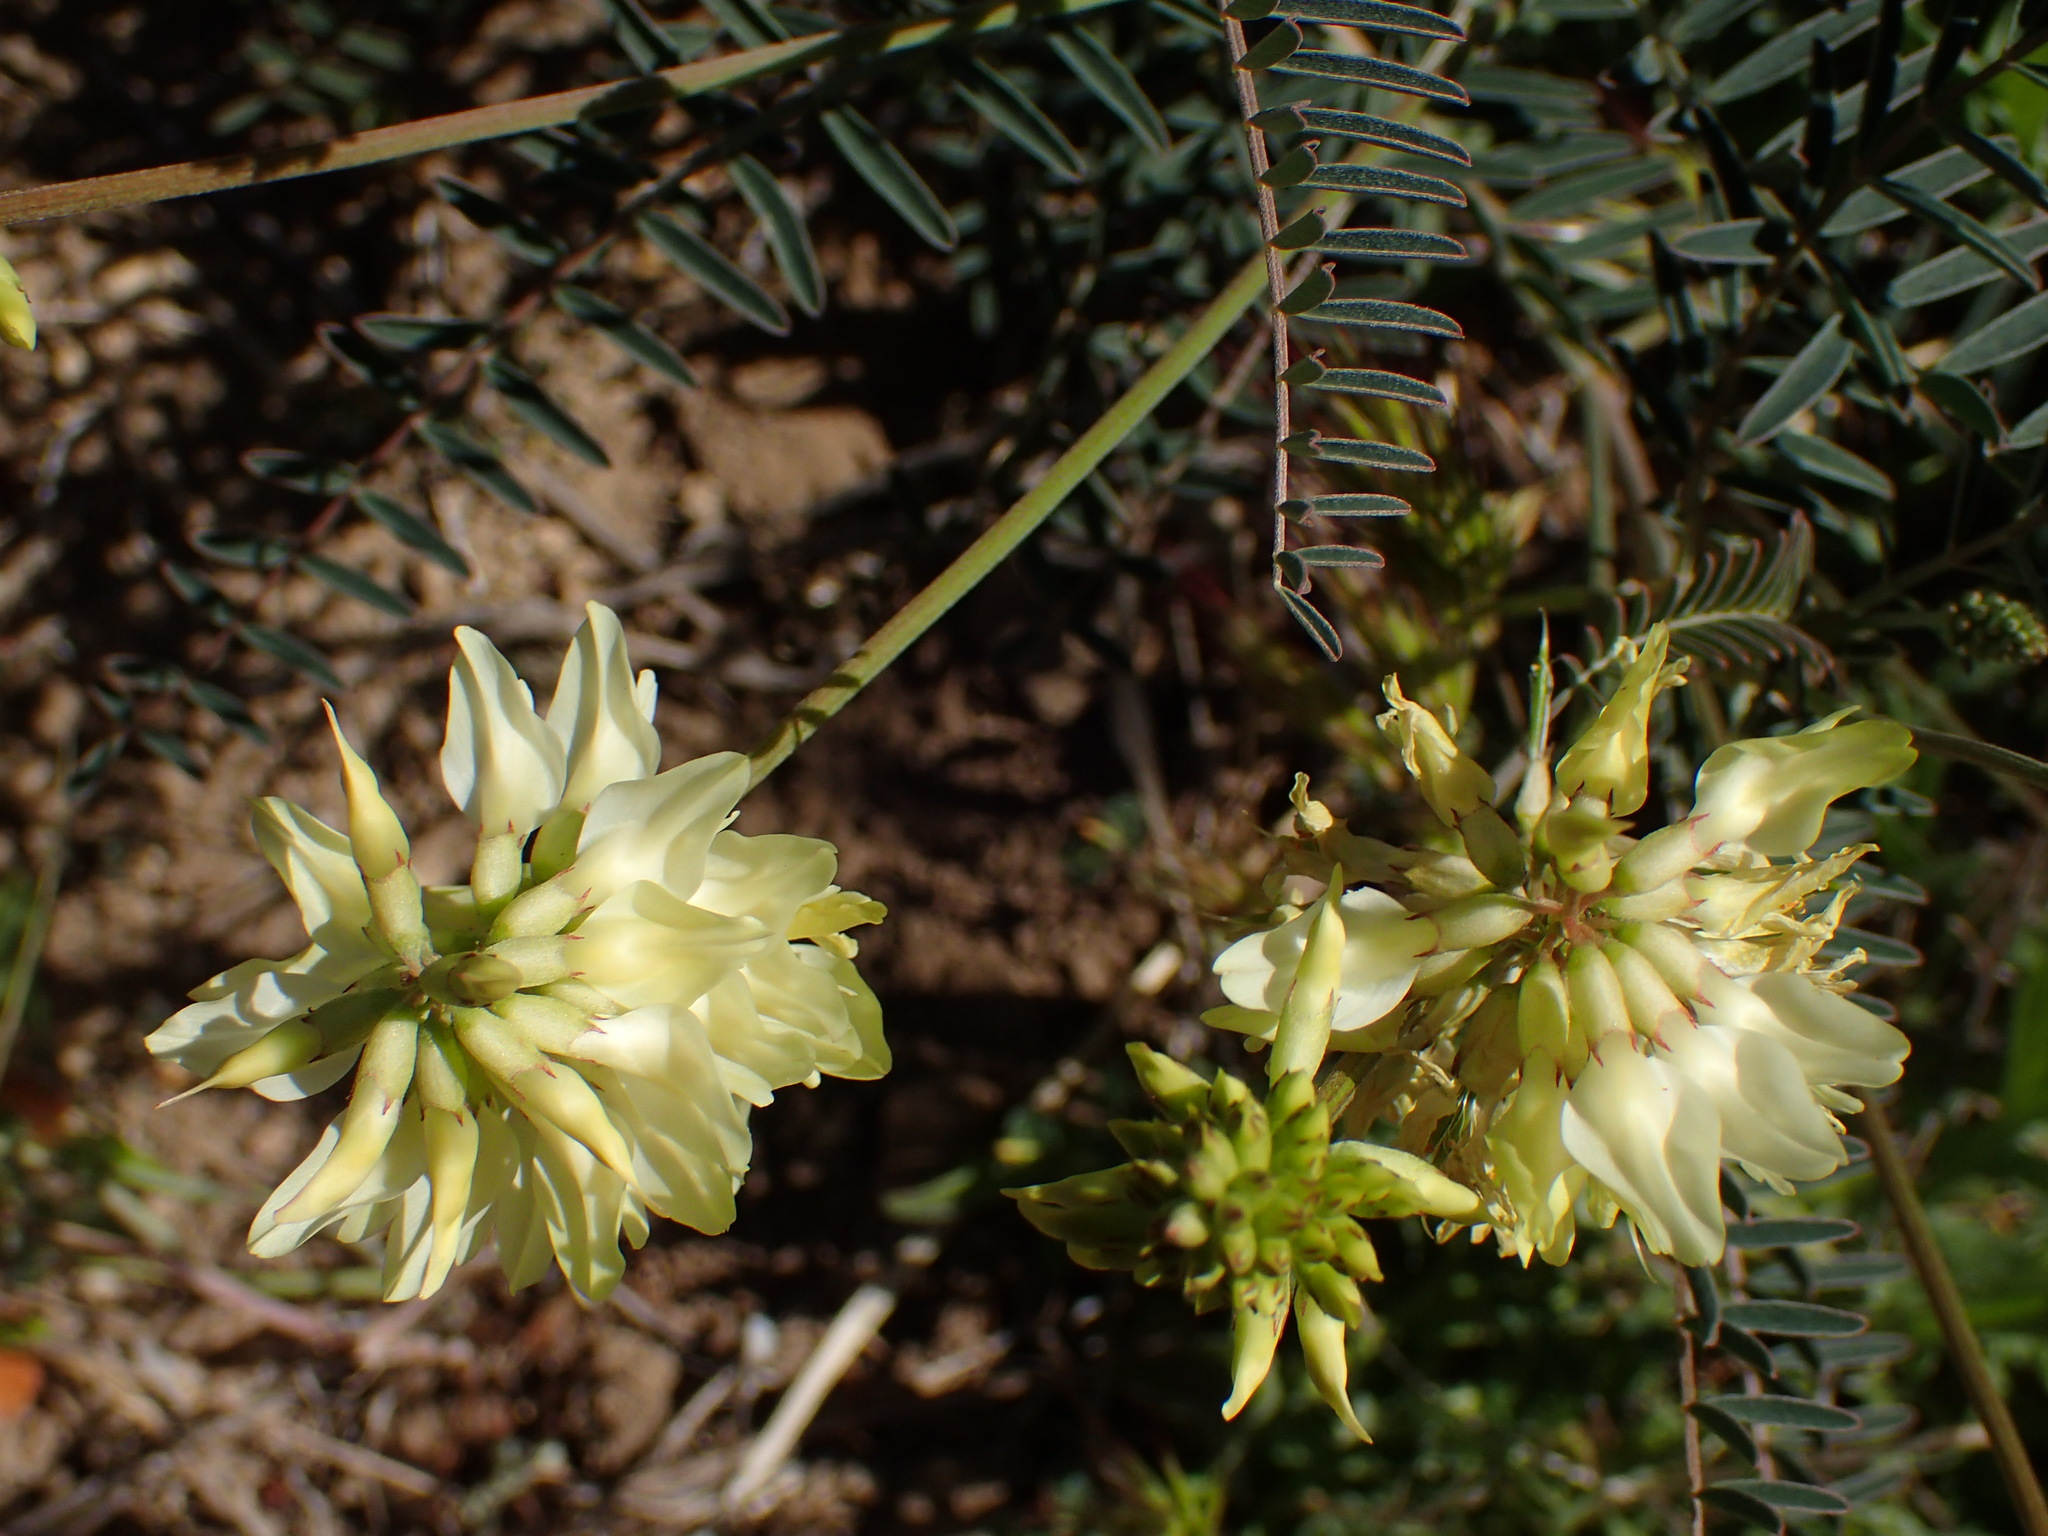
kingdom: Plantae
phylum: Tracheophyta
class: Magnoliopsida
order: Fabales
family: Fabaceae
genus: Astragalus
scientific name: Astragalus trichopodus
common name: Santa barbara milk-vetch
